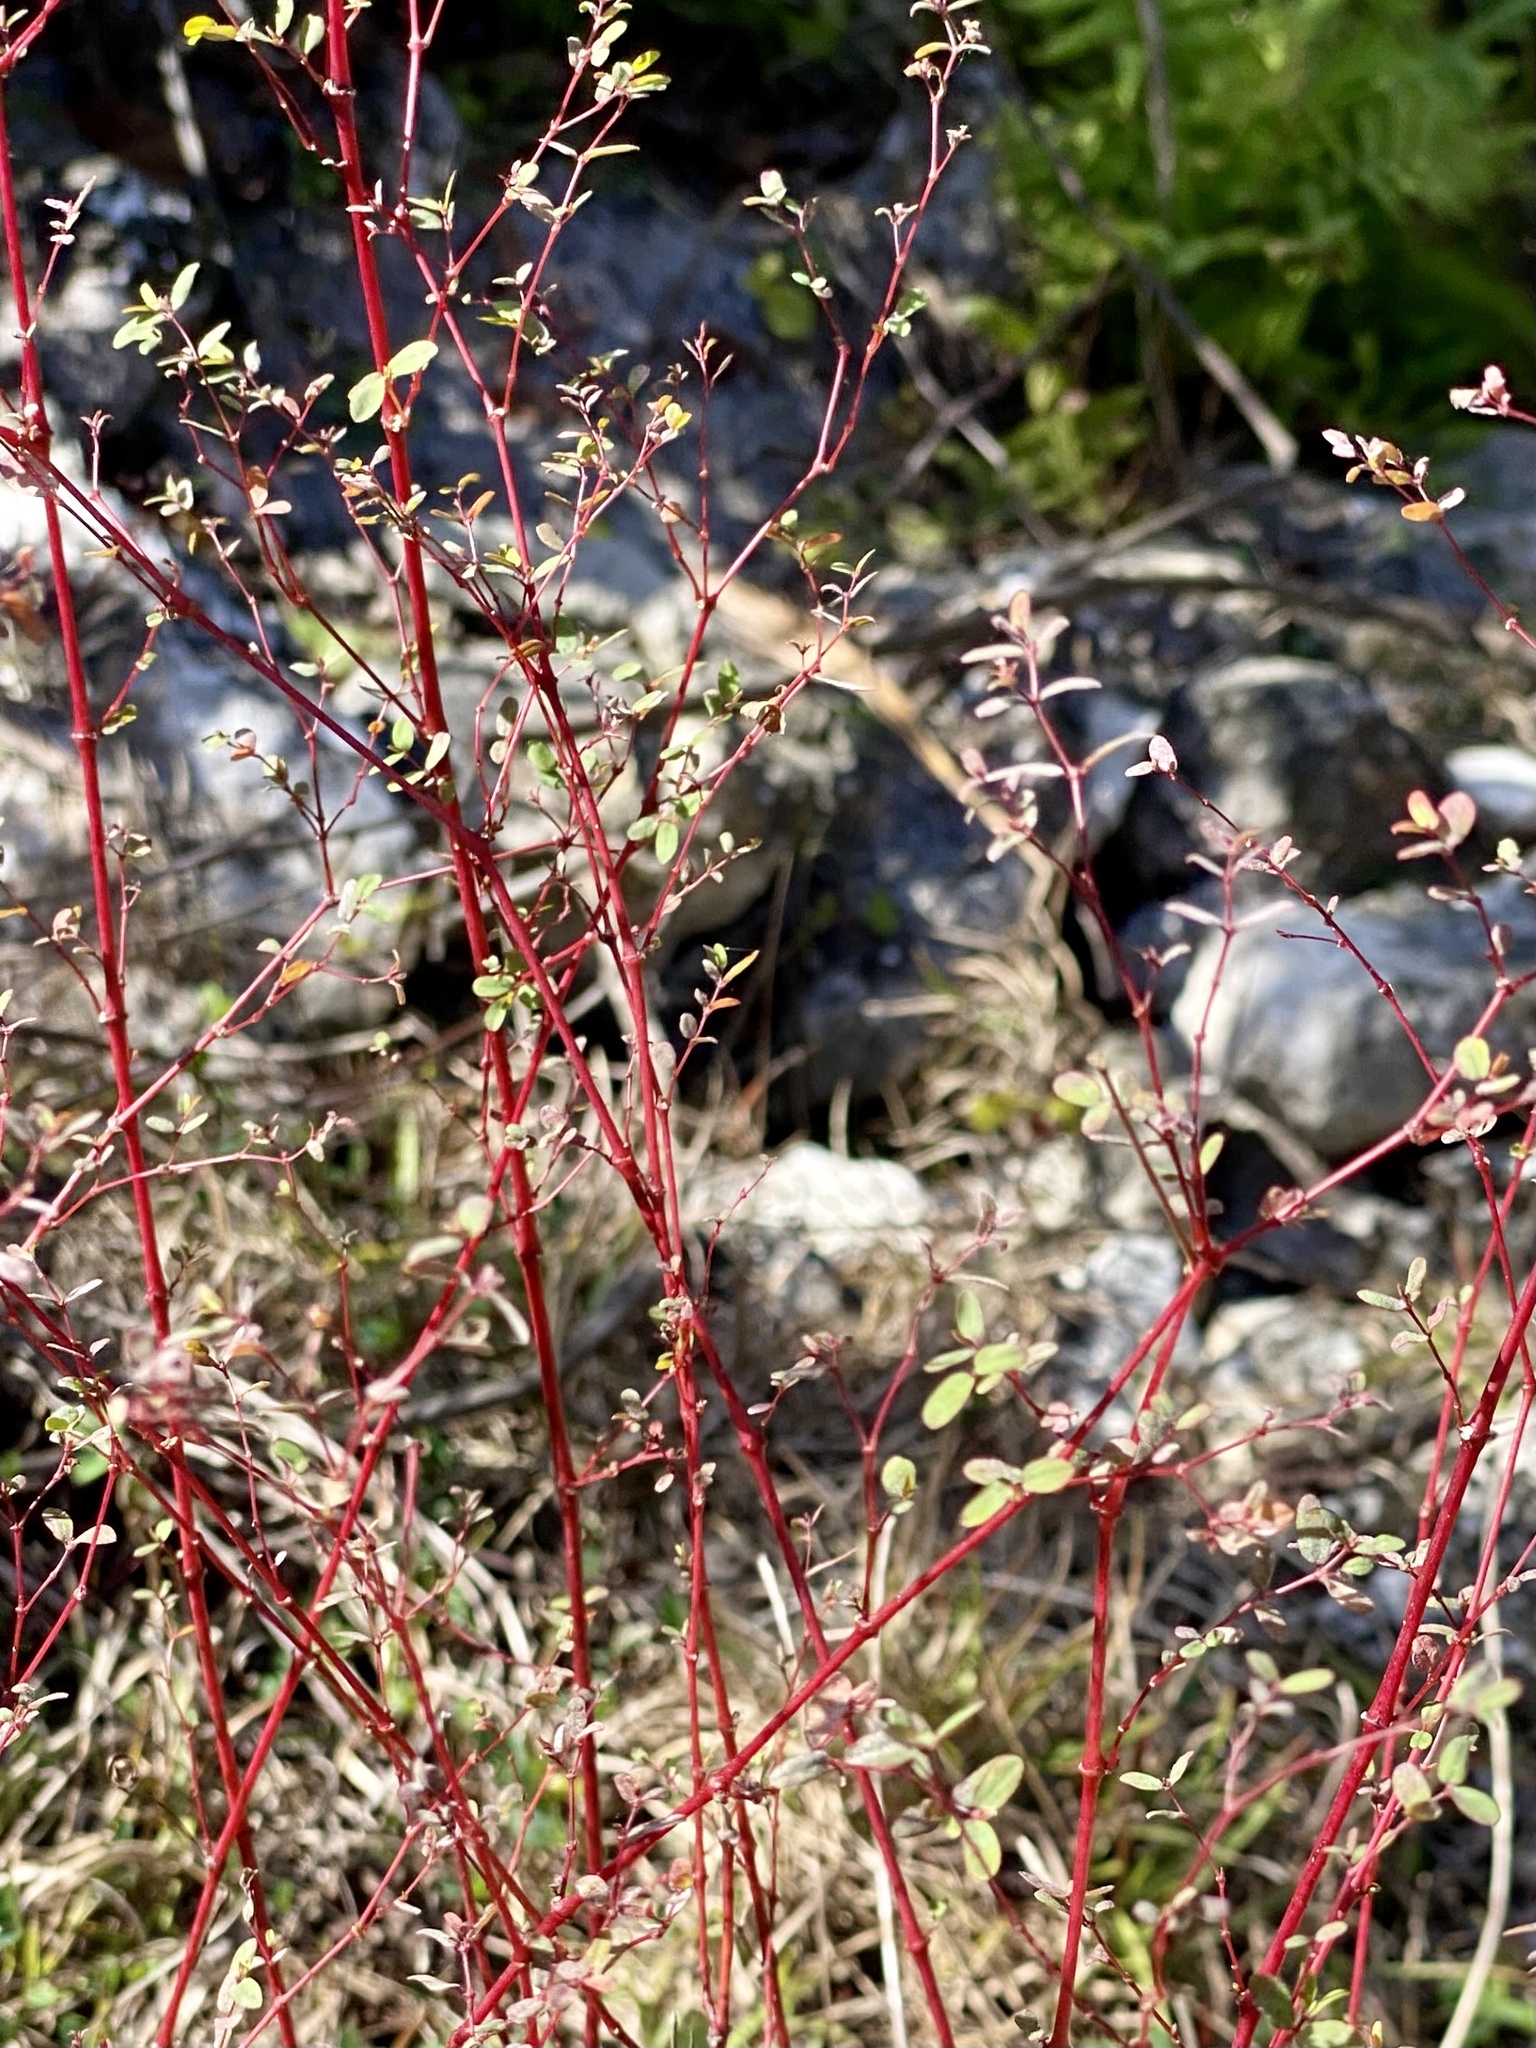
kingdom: Plantae
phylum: Tracheophyta
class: Magnoliopsida
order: Malpighiales
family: Euphorbiaceae
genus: Euphorbia
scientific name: Euphorbia hyssopifolia
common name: Hyssopleaf sandmat
